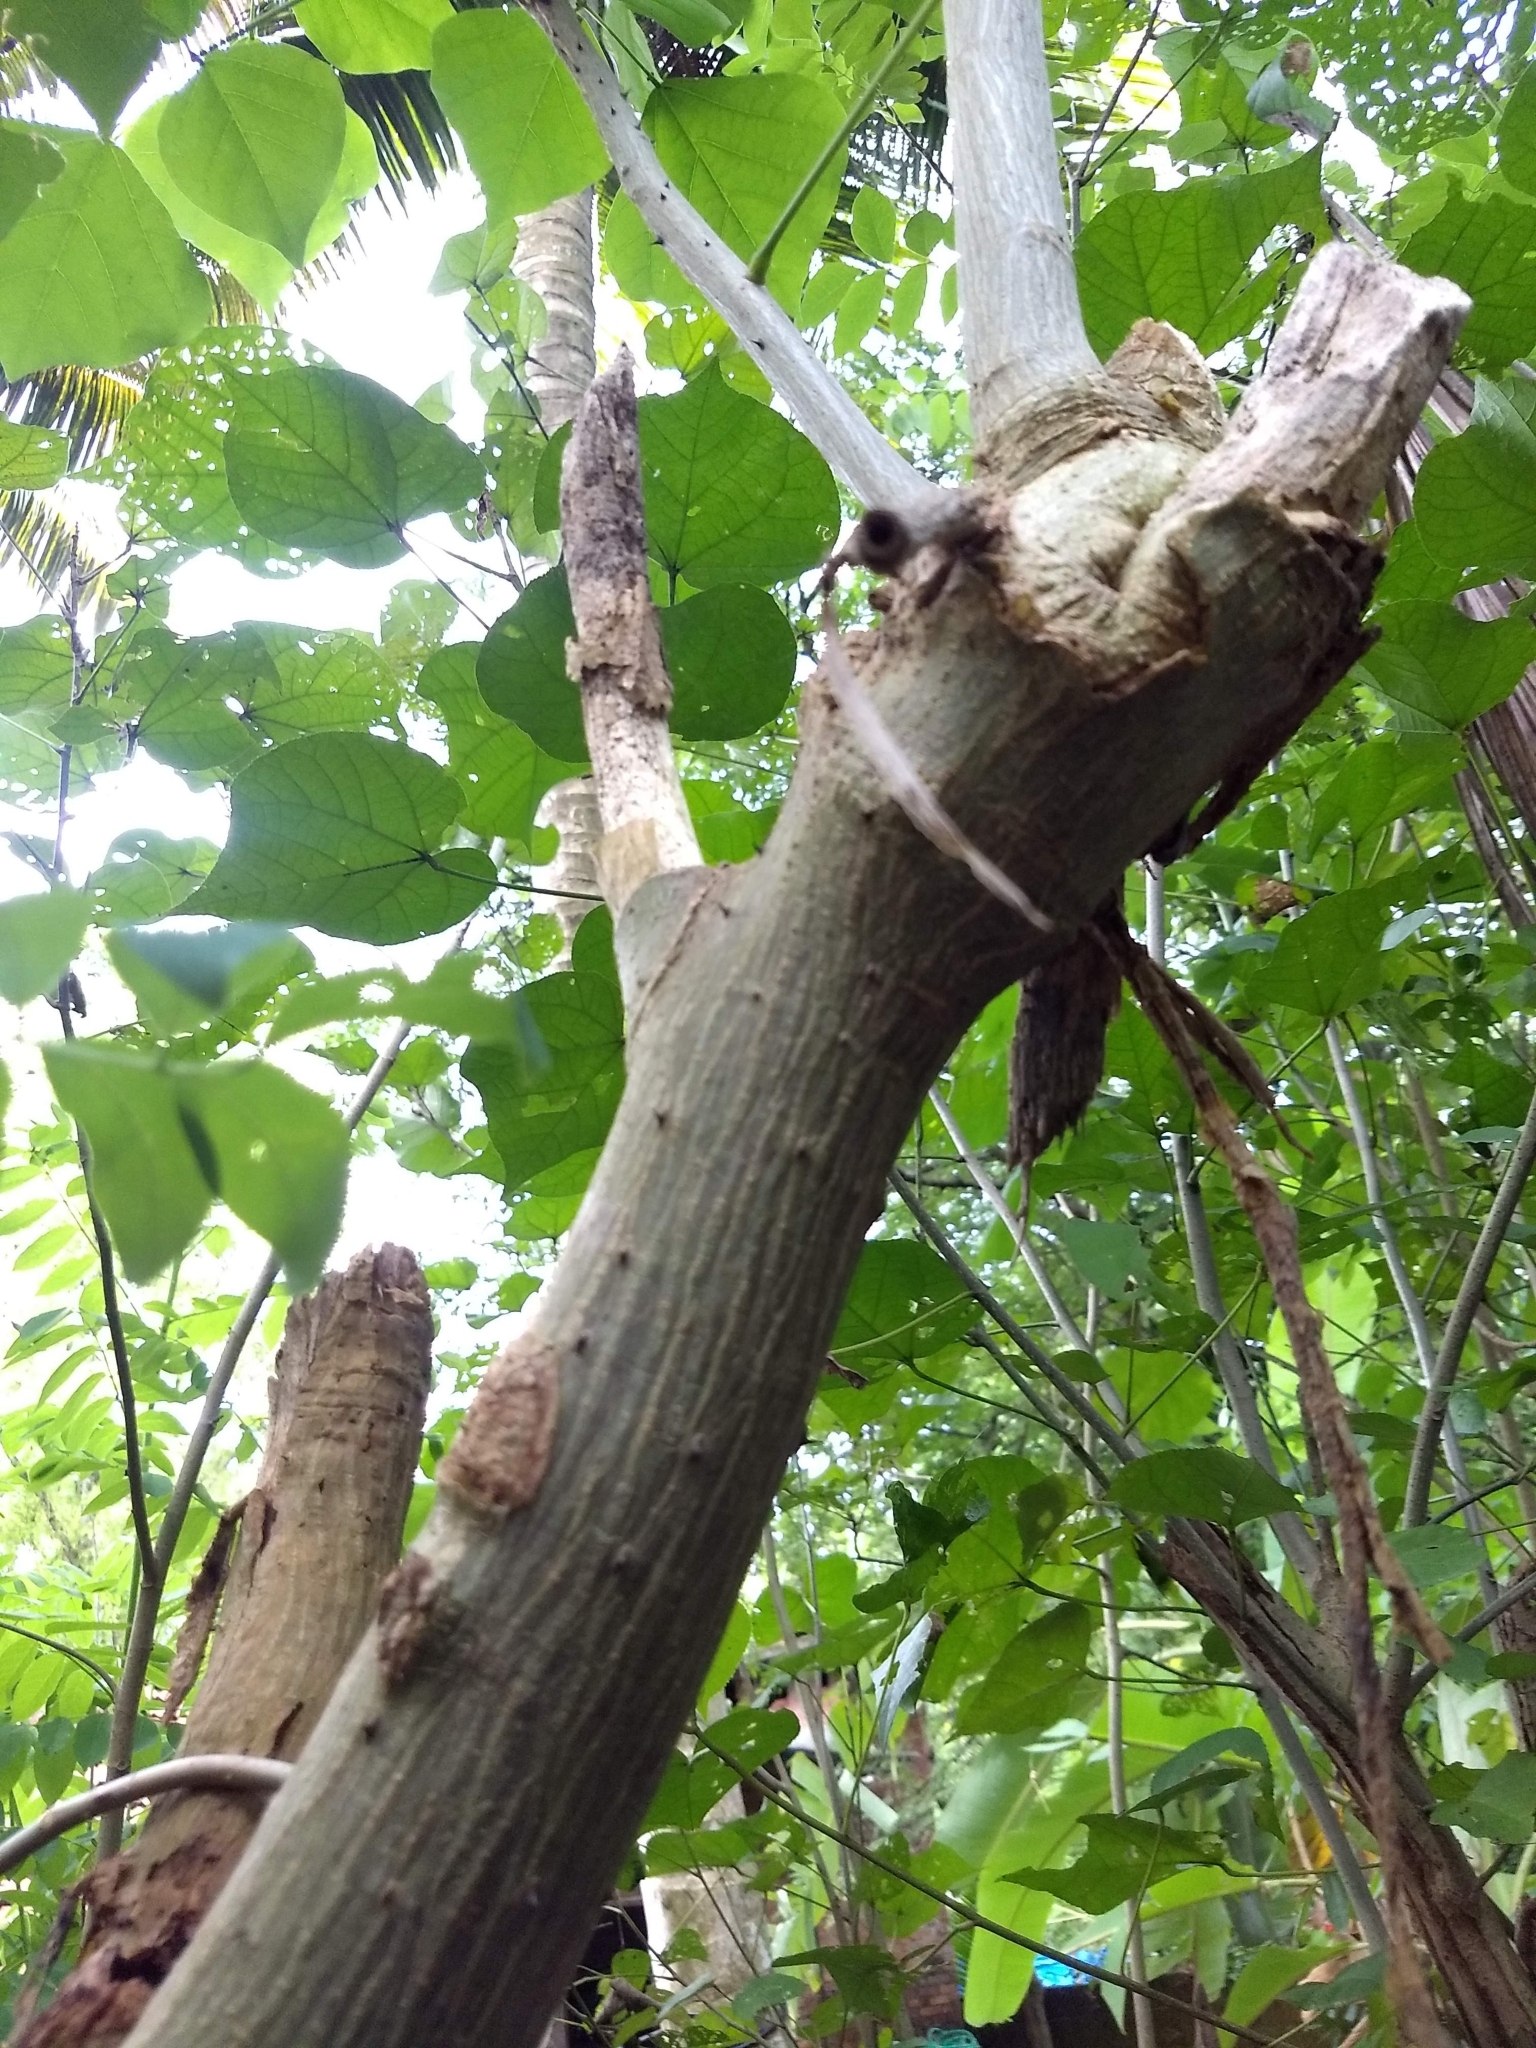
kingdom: Plantae
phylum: Tracheophyta
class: Magnoliopsida
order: Fabales
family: Fabaceae
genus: Erythrina
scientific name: Erythrina variegata
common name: Indian coral tree
